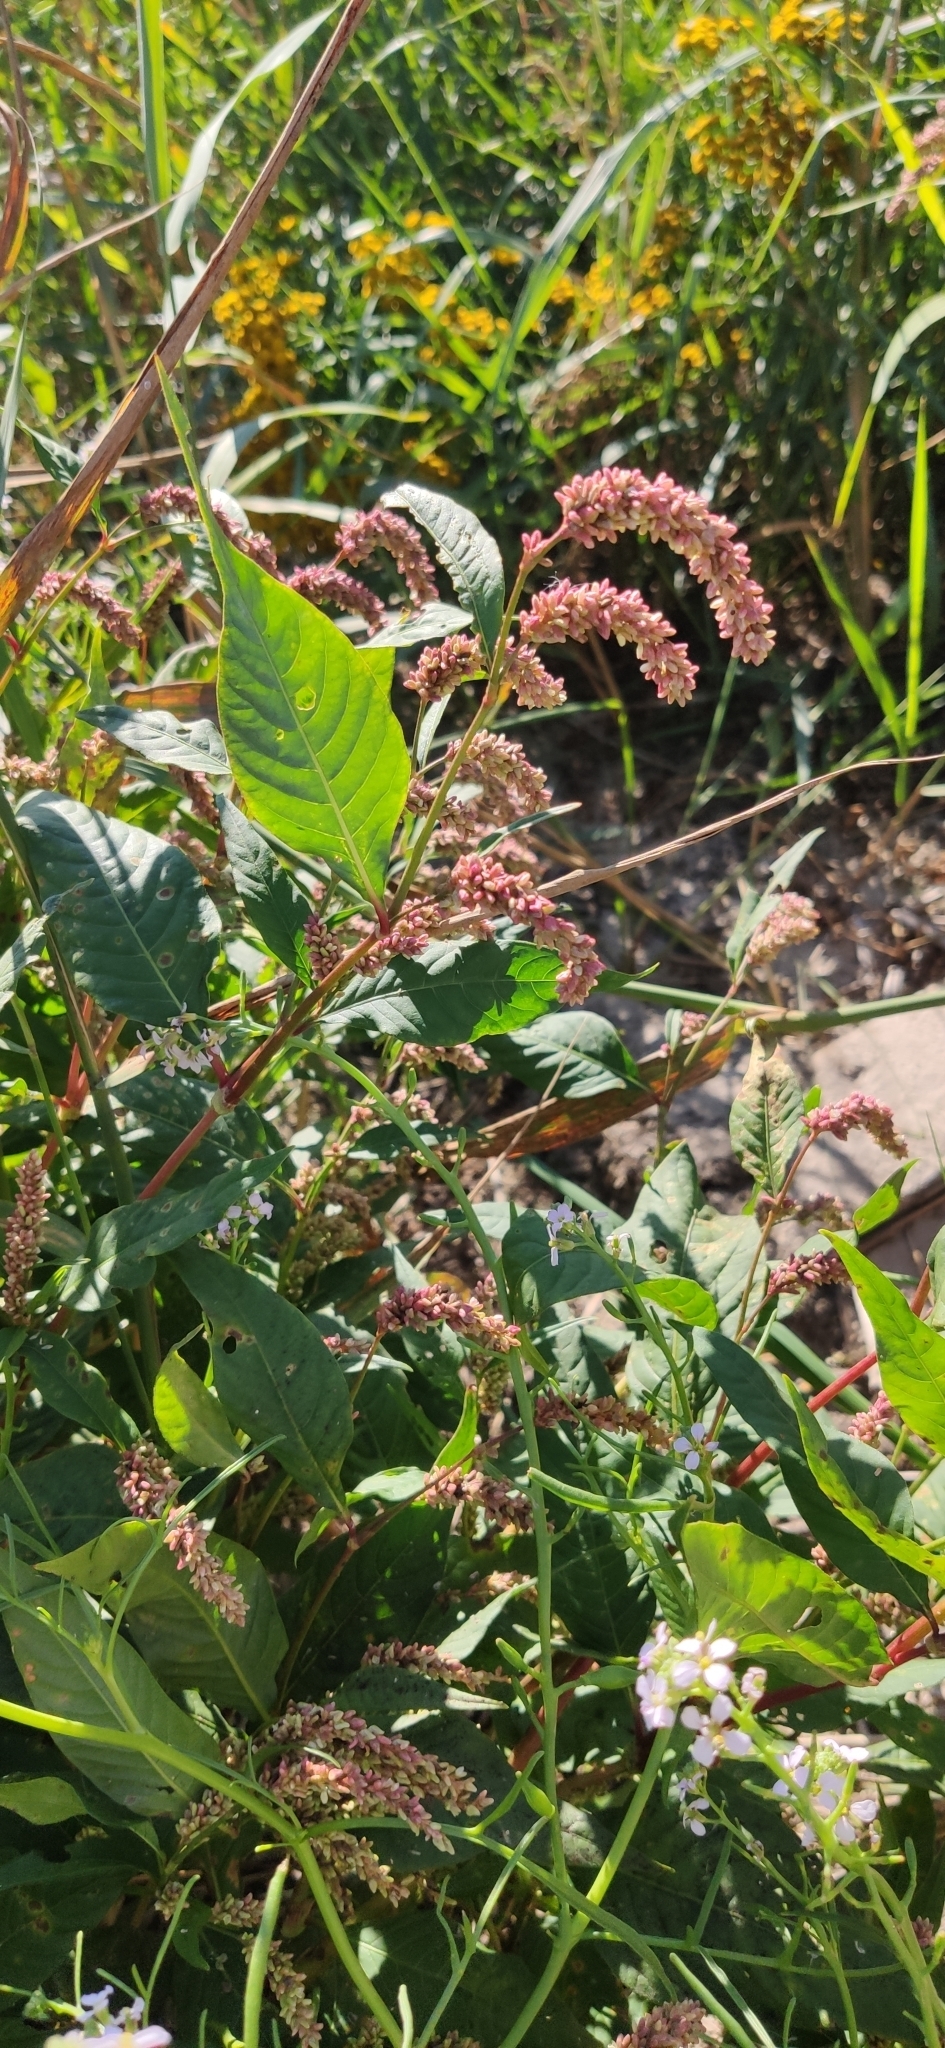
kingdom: Plantae
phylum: Tracheophyta
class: Magnoliopsida
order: Caryophyllales
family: Polygonaceae
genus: Persicaria
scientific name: Persicaria lapathifolia
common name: Curlytop knotweed
